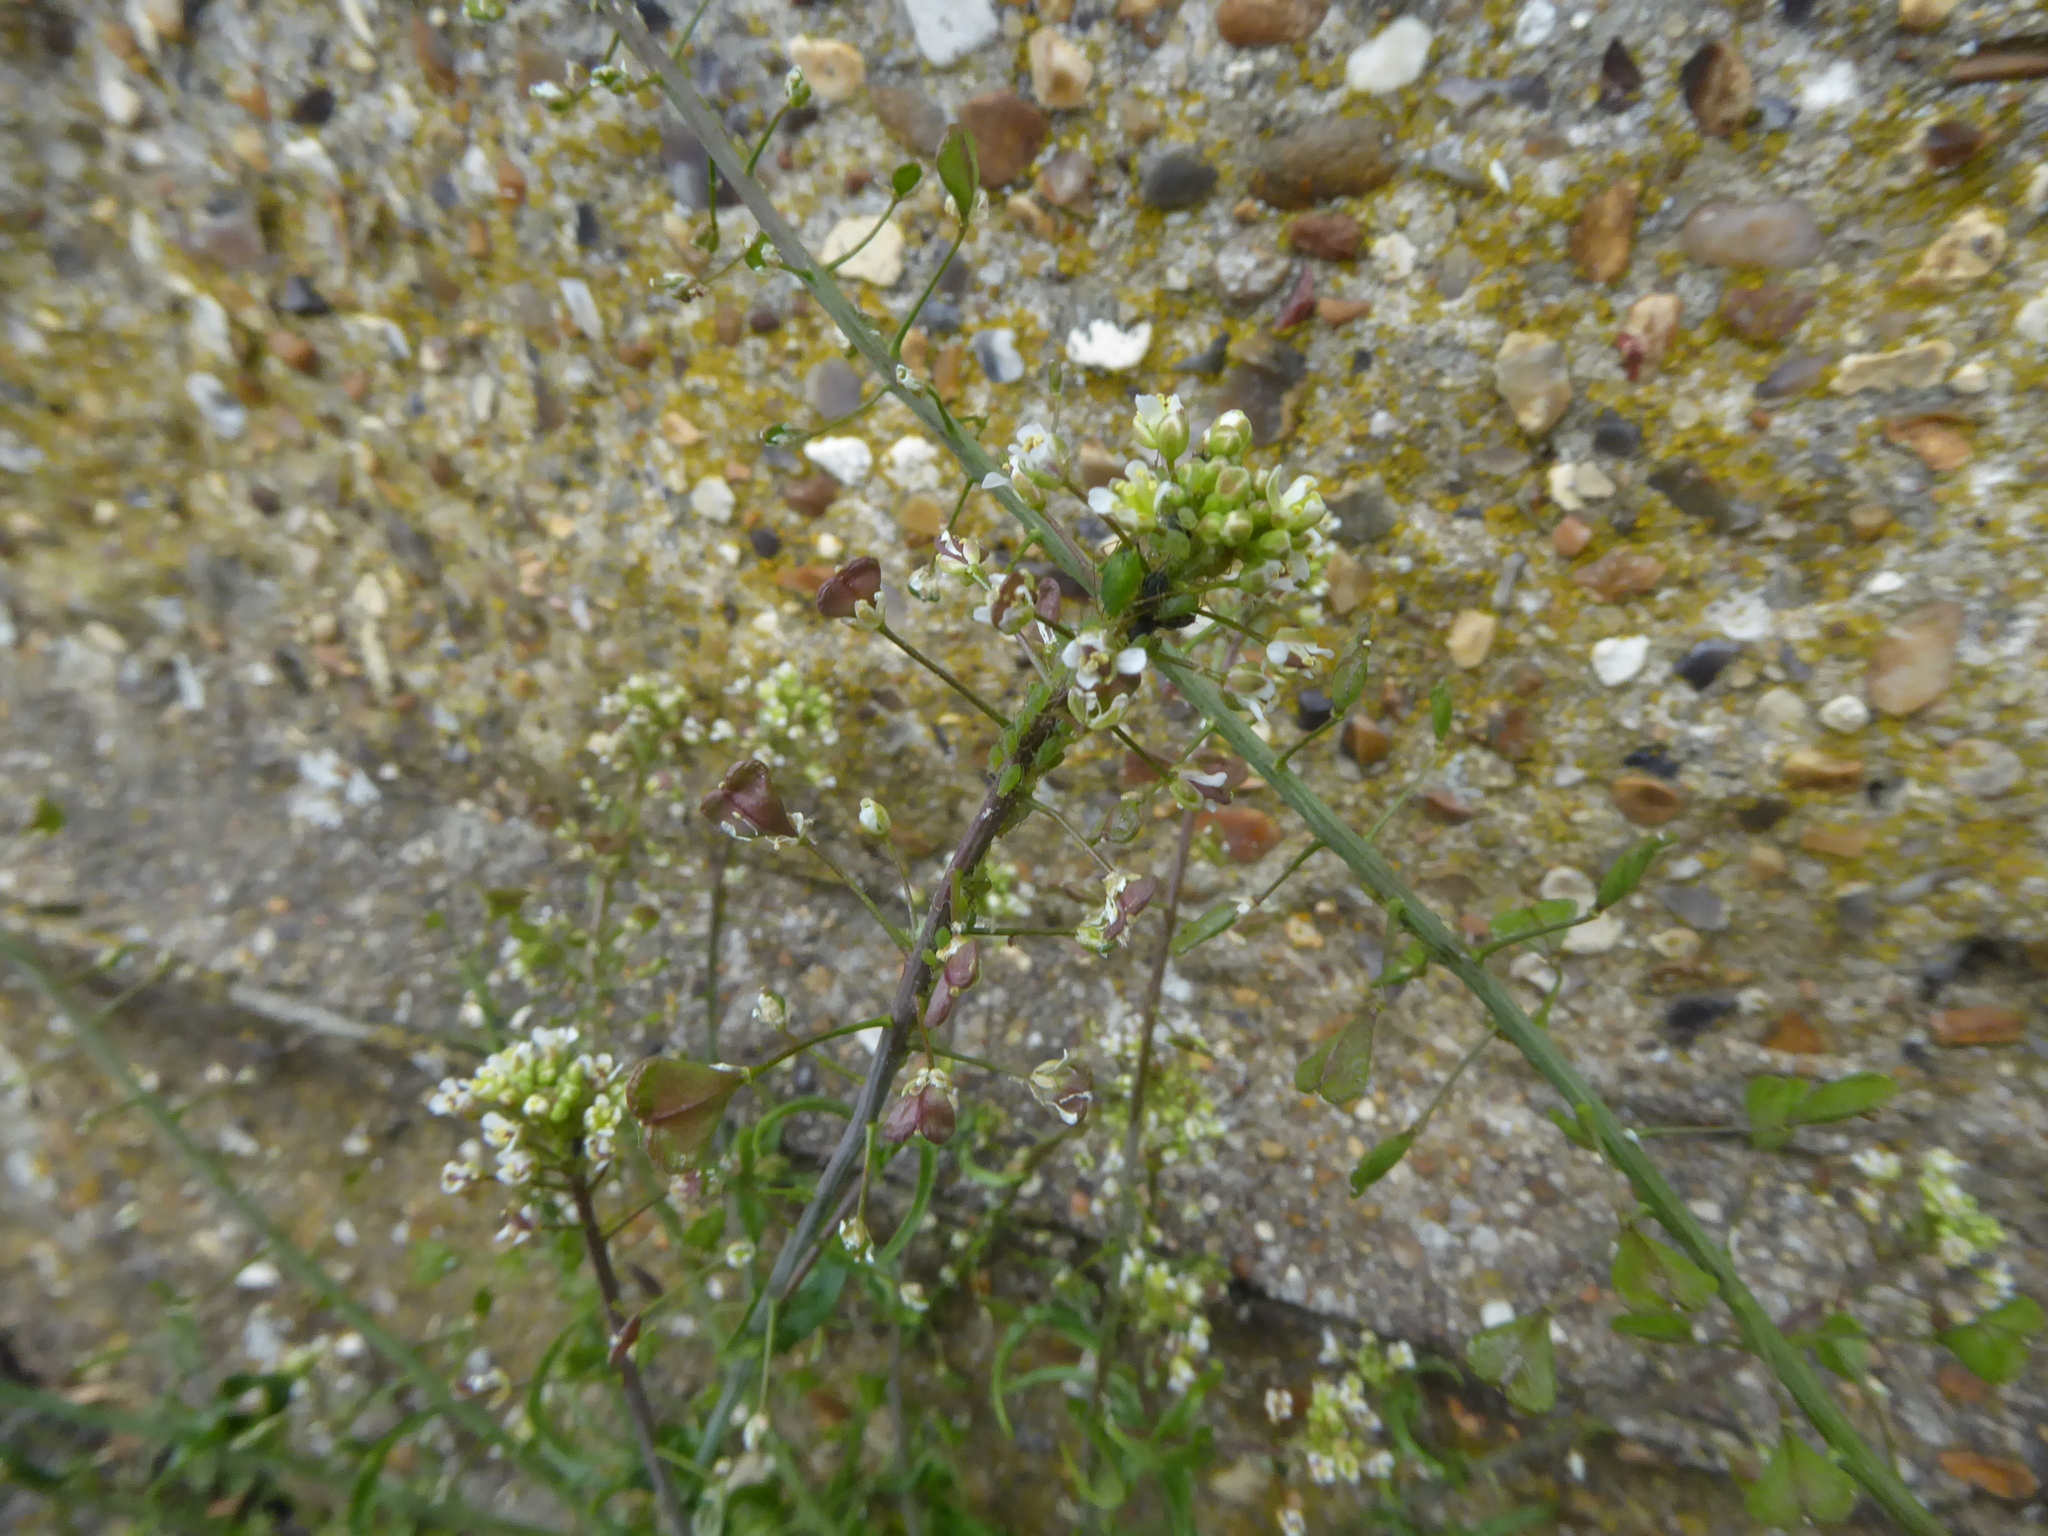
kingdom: Plantae
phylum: Tracheophyta
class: Magnoliopsida
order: Brassicales
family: Brassicaceae
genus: Capsella
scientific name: Capsella bursa-pastoris
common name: Shepherd's purse
